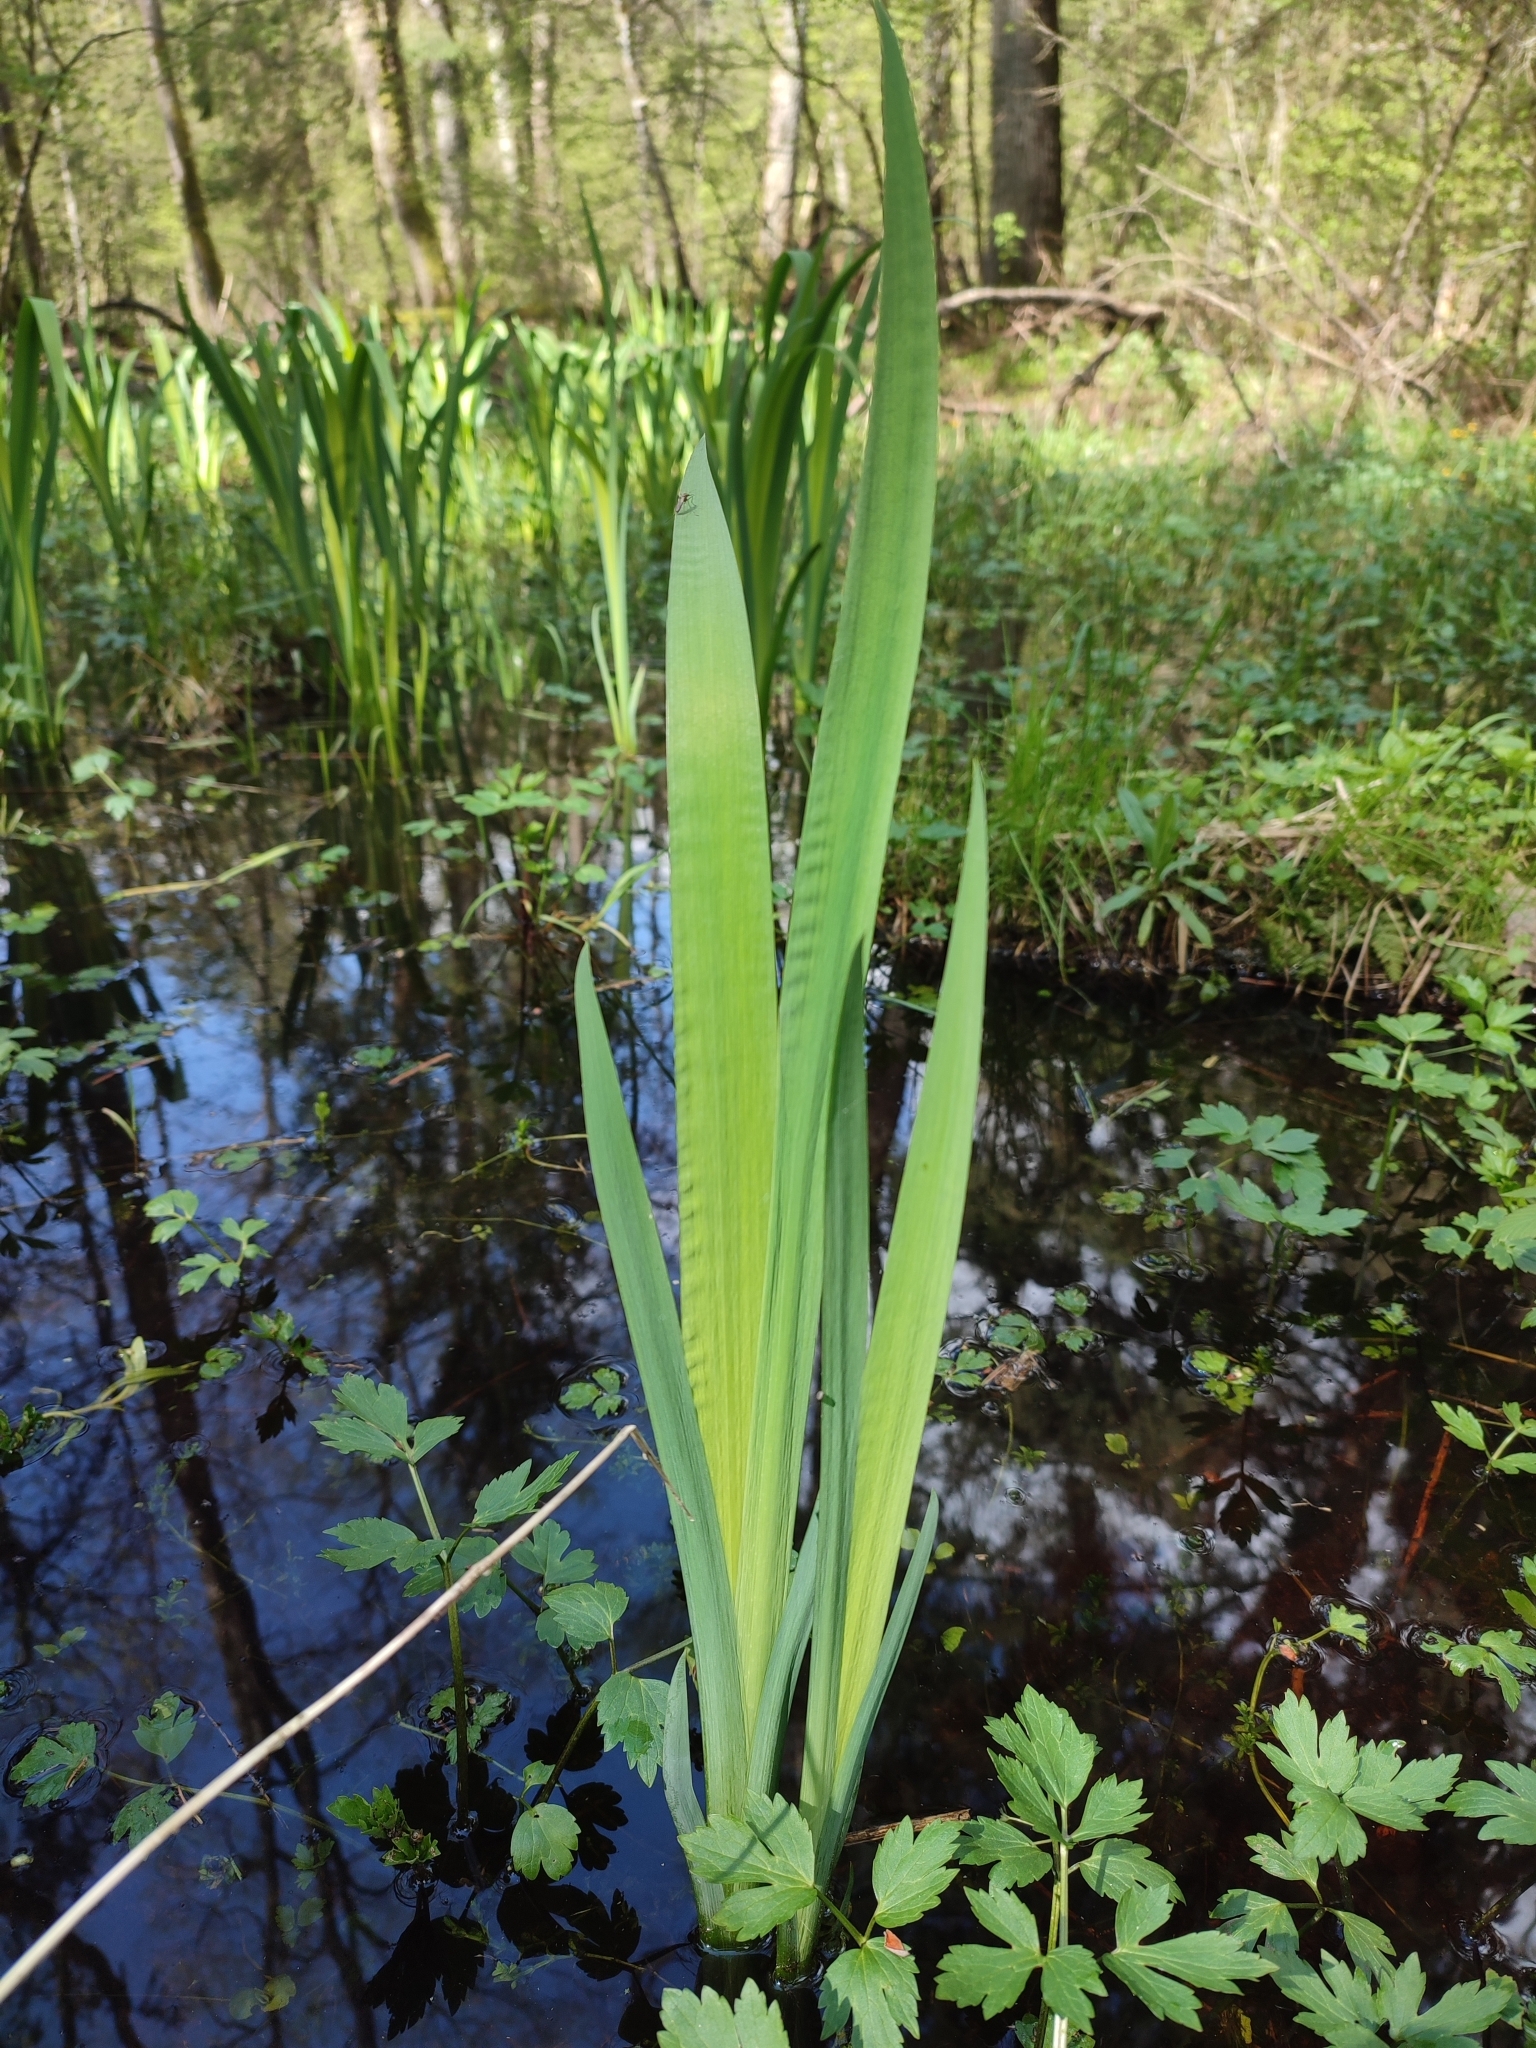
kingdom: Plantae
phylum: Tracheophyta
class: Liliopsida
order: Asparagales
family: Iridaceae
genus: Iris
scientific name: Iris pseudacorus
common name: Yellow flag
